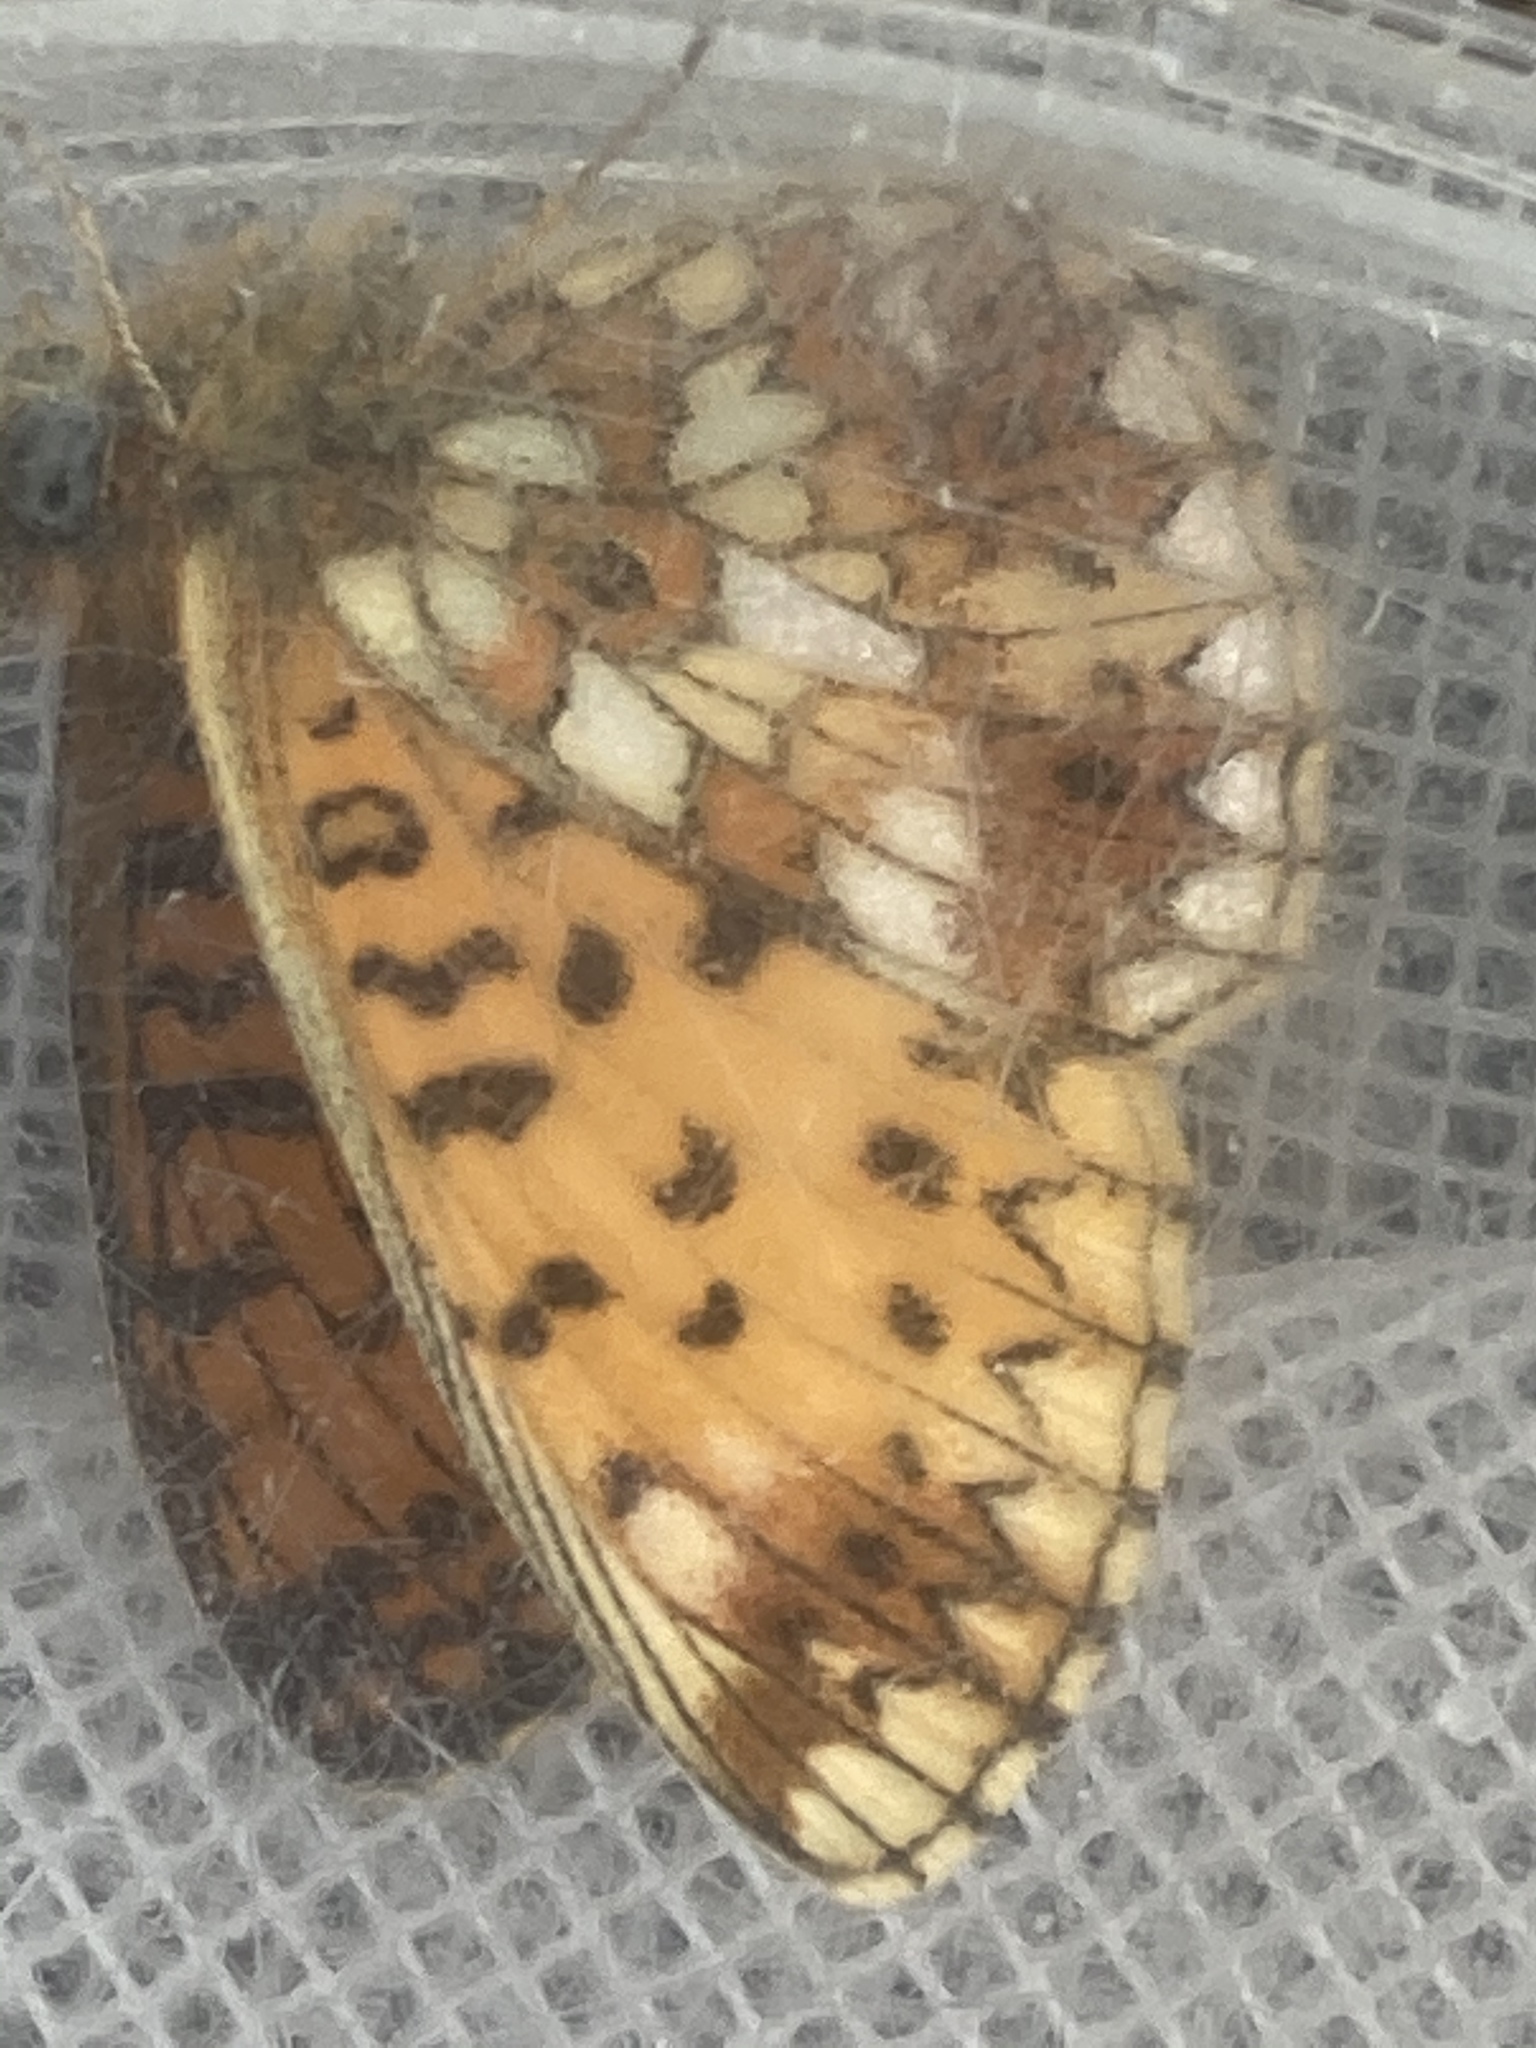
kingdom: Animalia
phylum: Arthropoda
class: Insecta
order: Lepidoptera
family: Nymphalidae
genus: Boloria
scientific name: Boloria selene
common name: Small pearl-bordered fritillary
